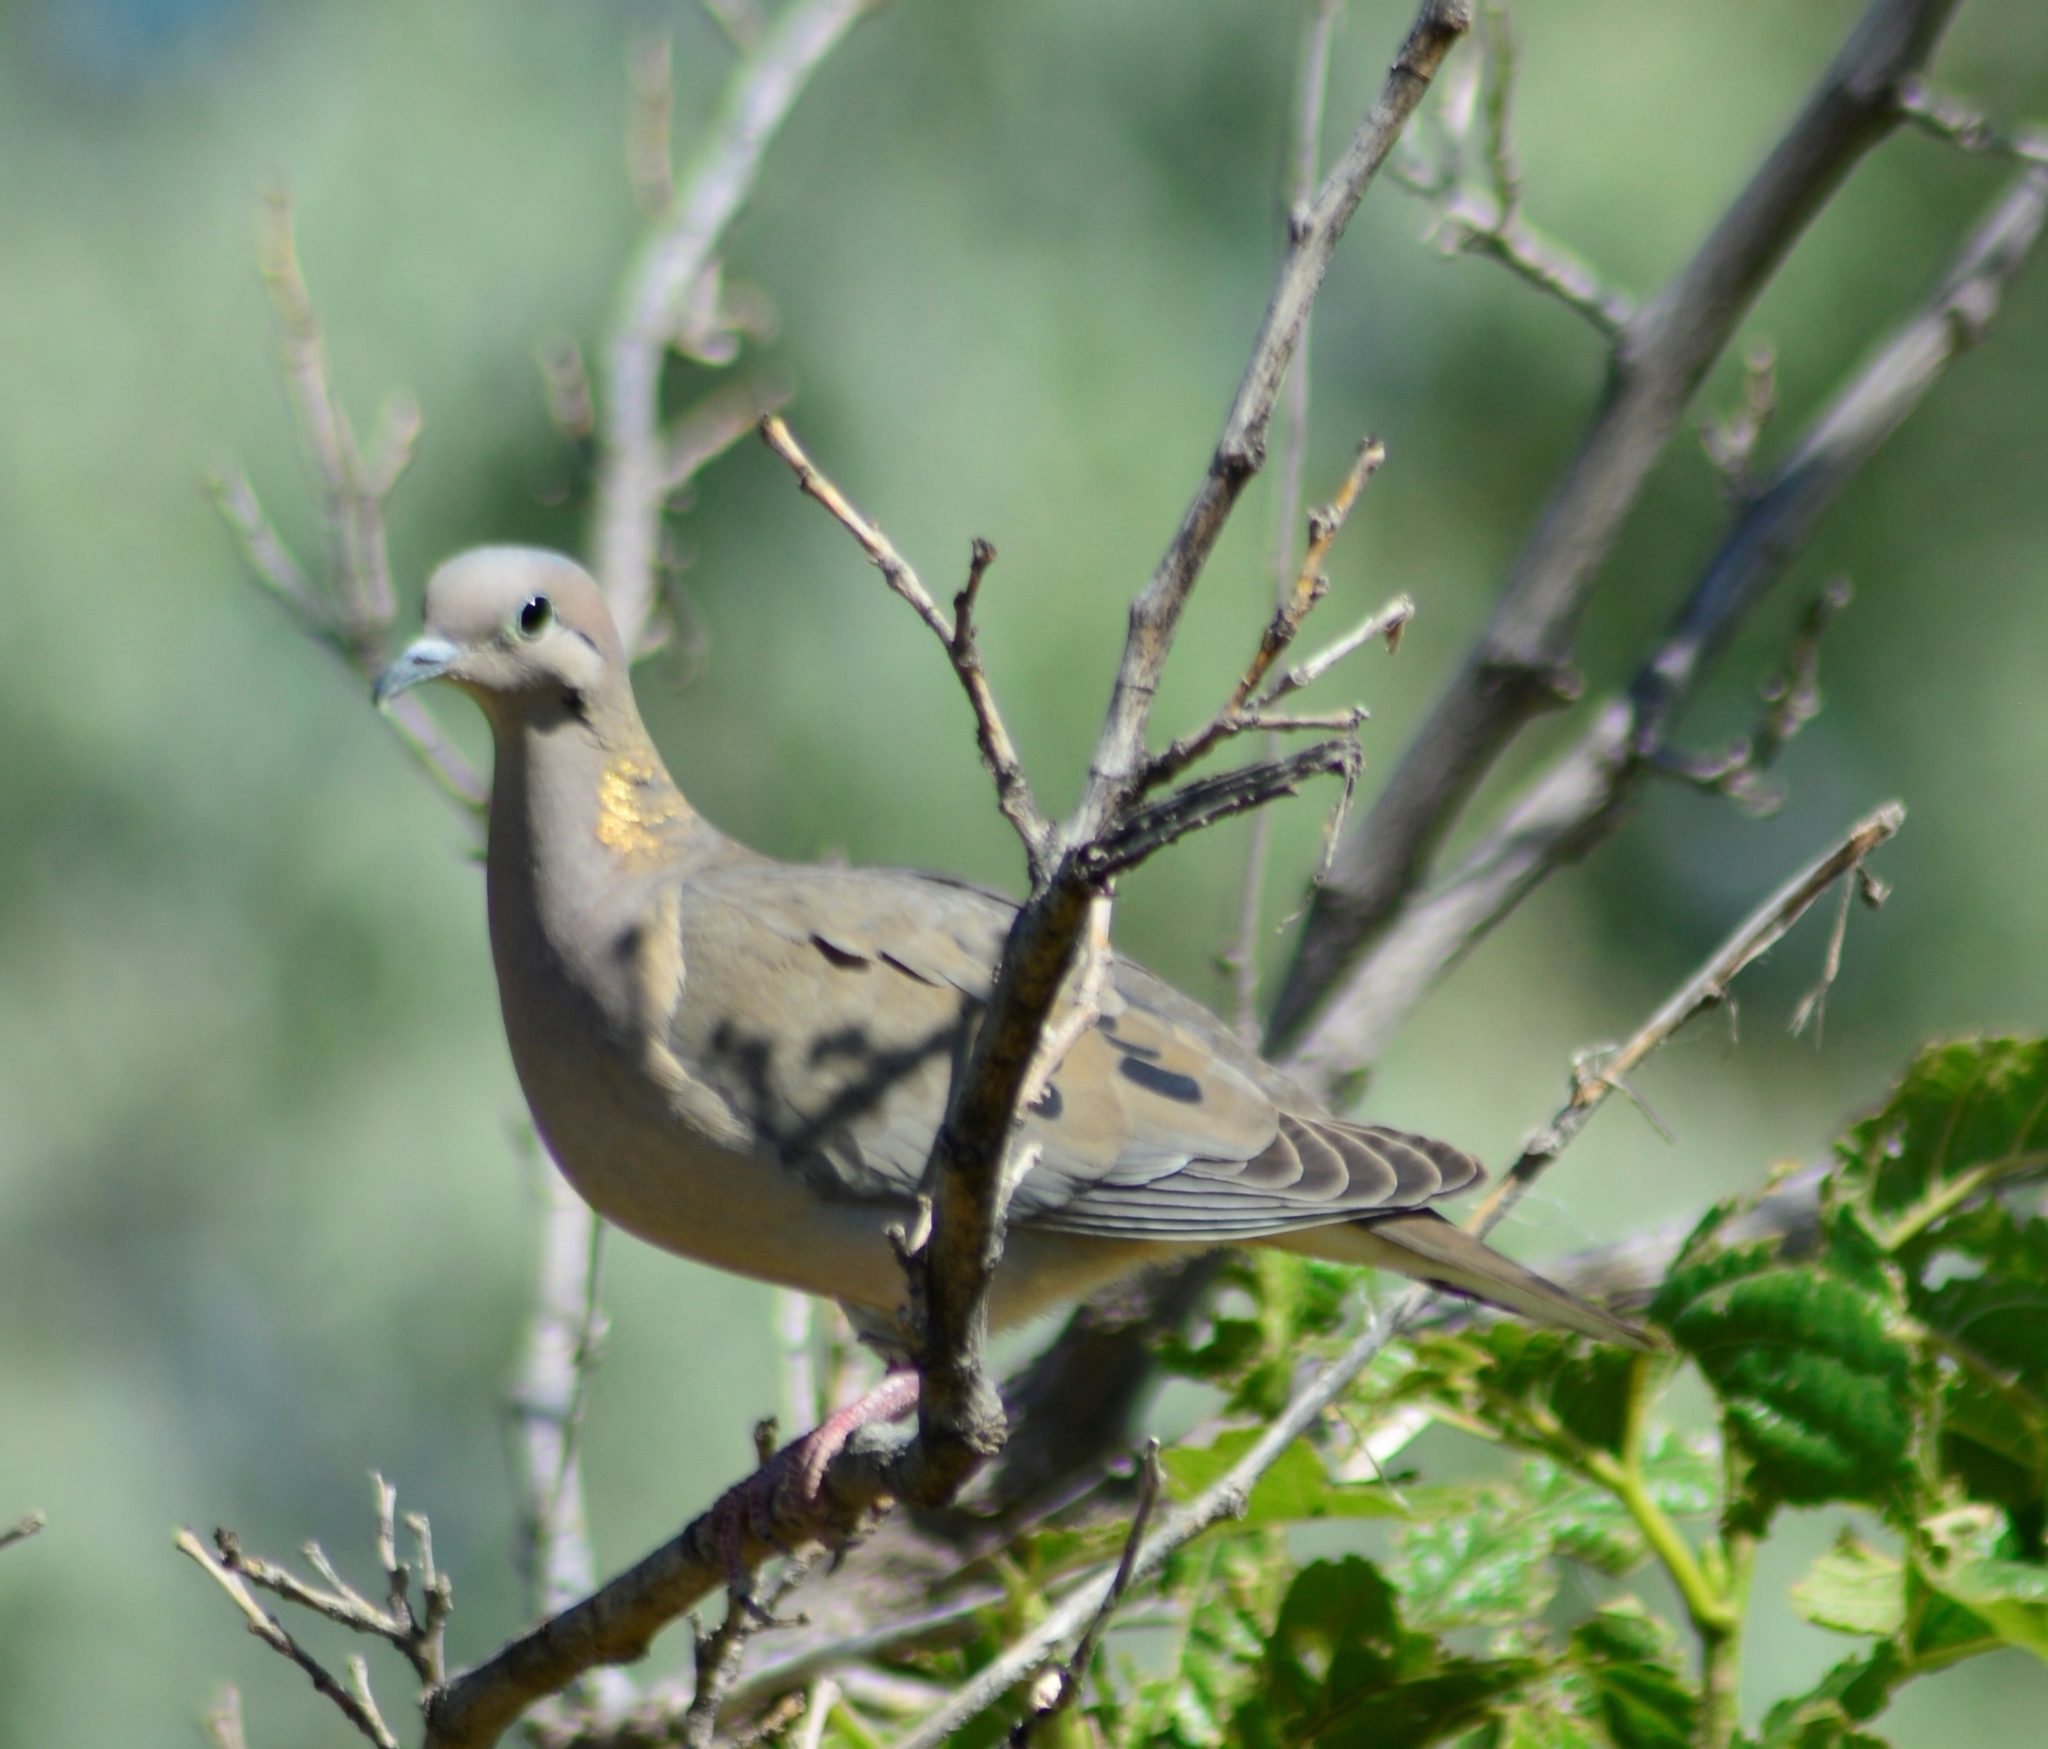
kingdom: Animalia
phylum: Chordata
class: Aves
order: Columbiformes
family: Columbidae
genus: Zenaida
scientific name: Zenaida auriculata
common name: Eared dove
